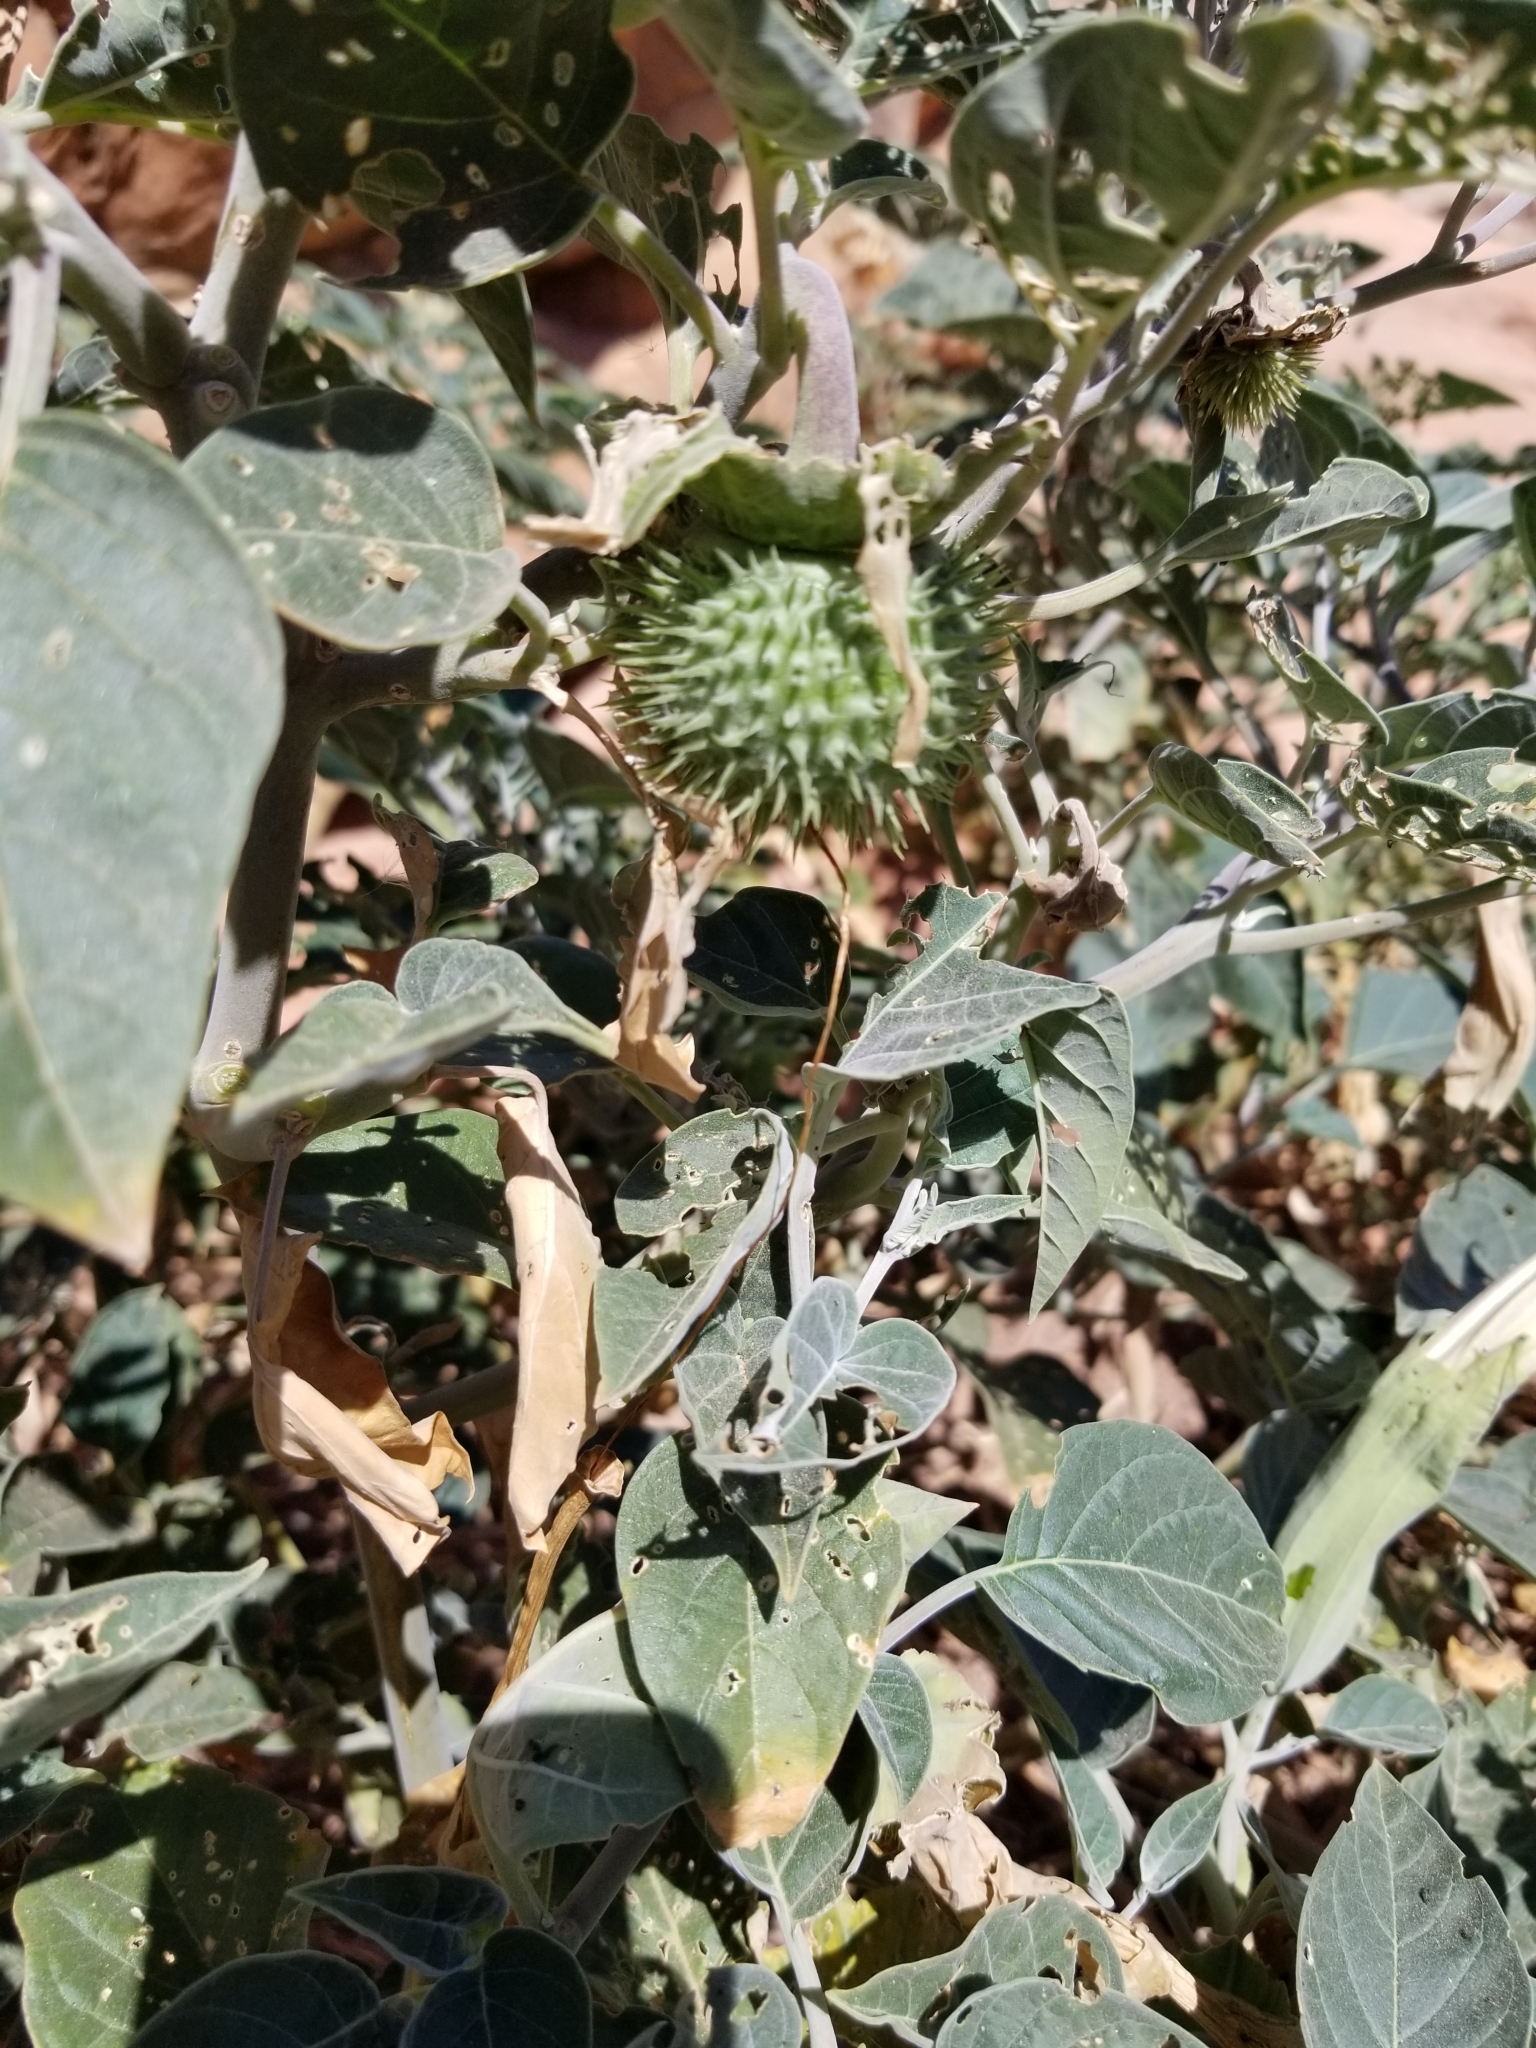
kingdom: Plantae
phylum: Tracheophyta
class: Magnoliopsida
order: Solanales
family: Solanaceae
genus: Datura
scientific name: Datura wrightii
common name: Sacred thorn-apple
